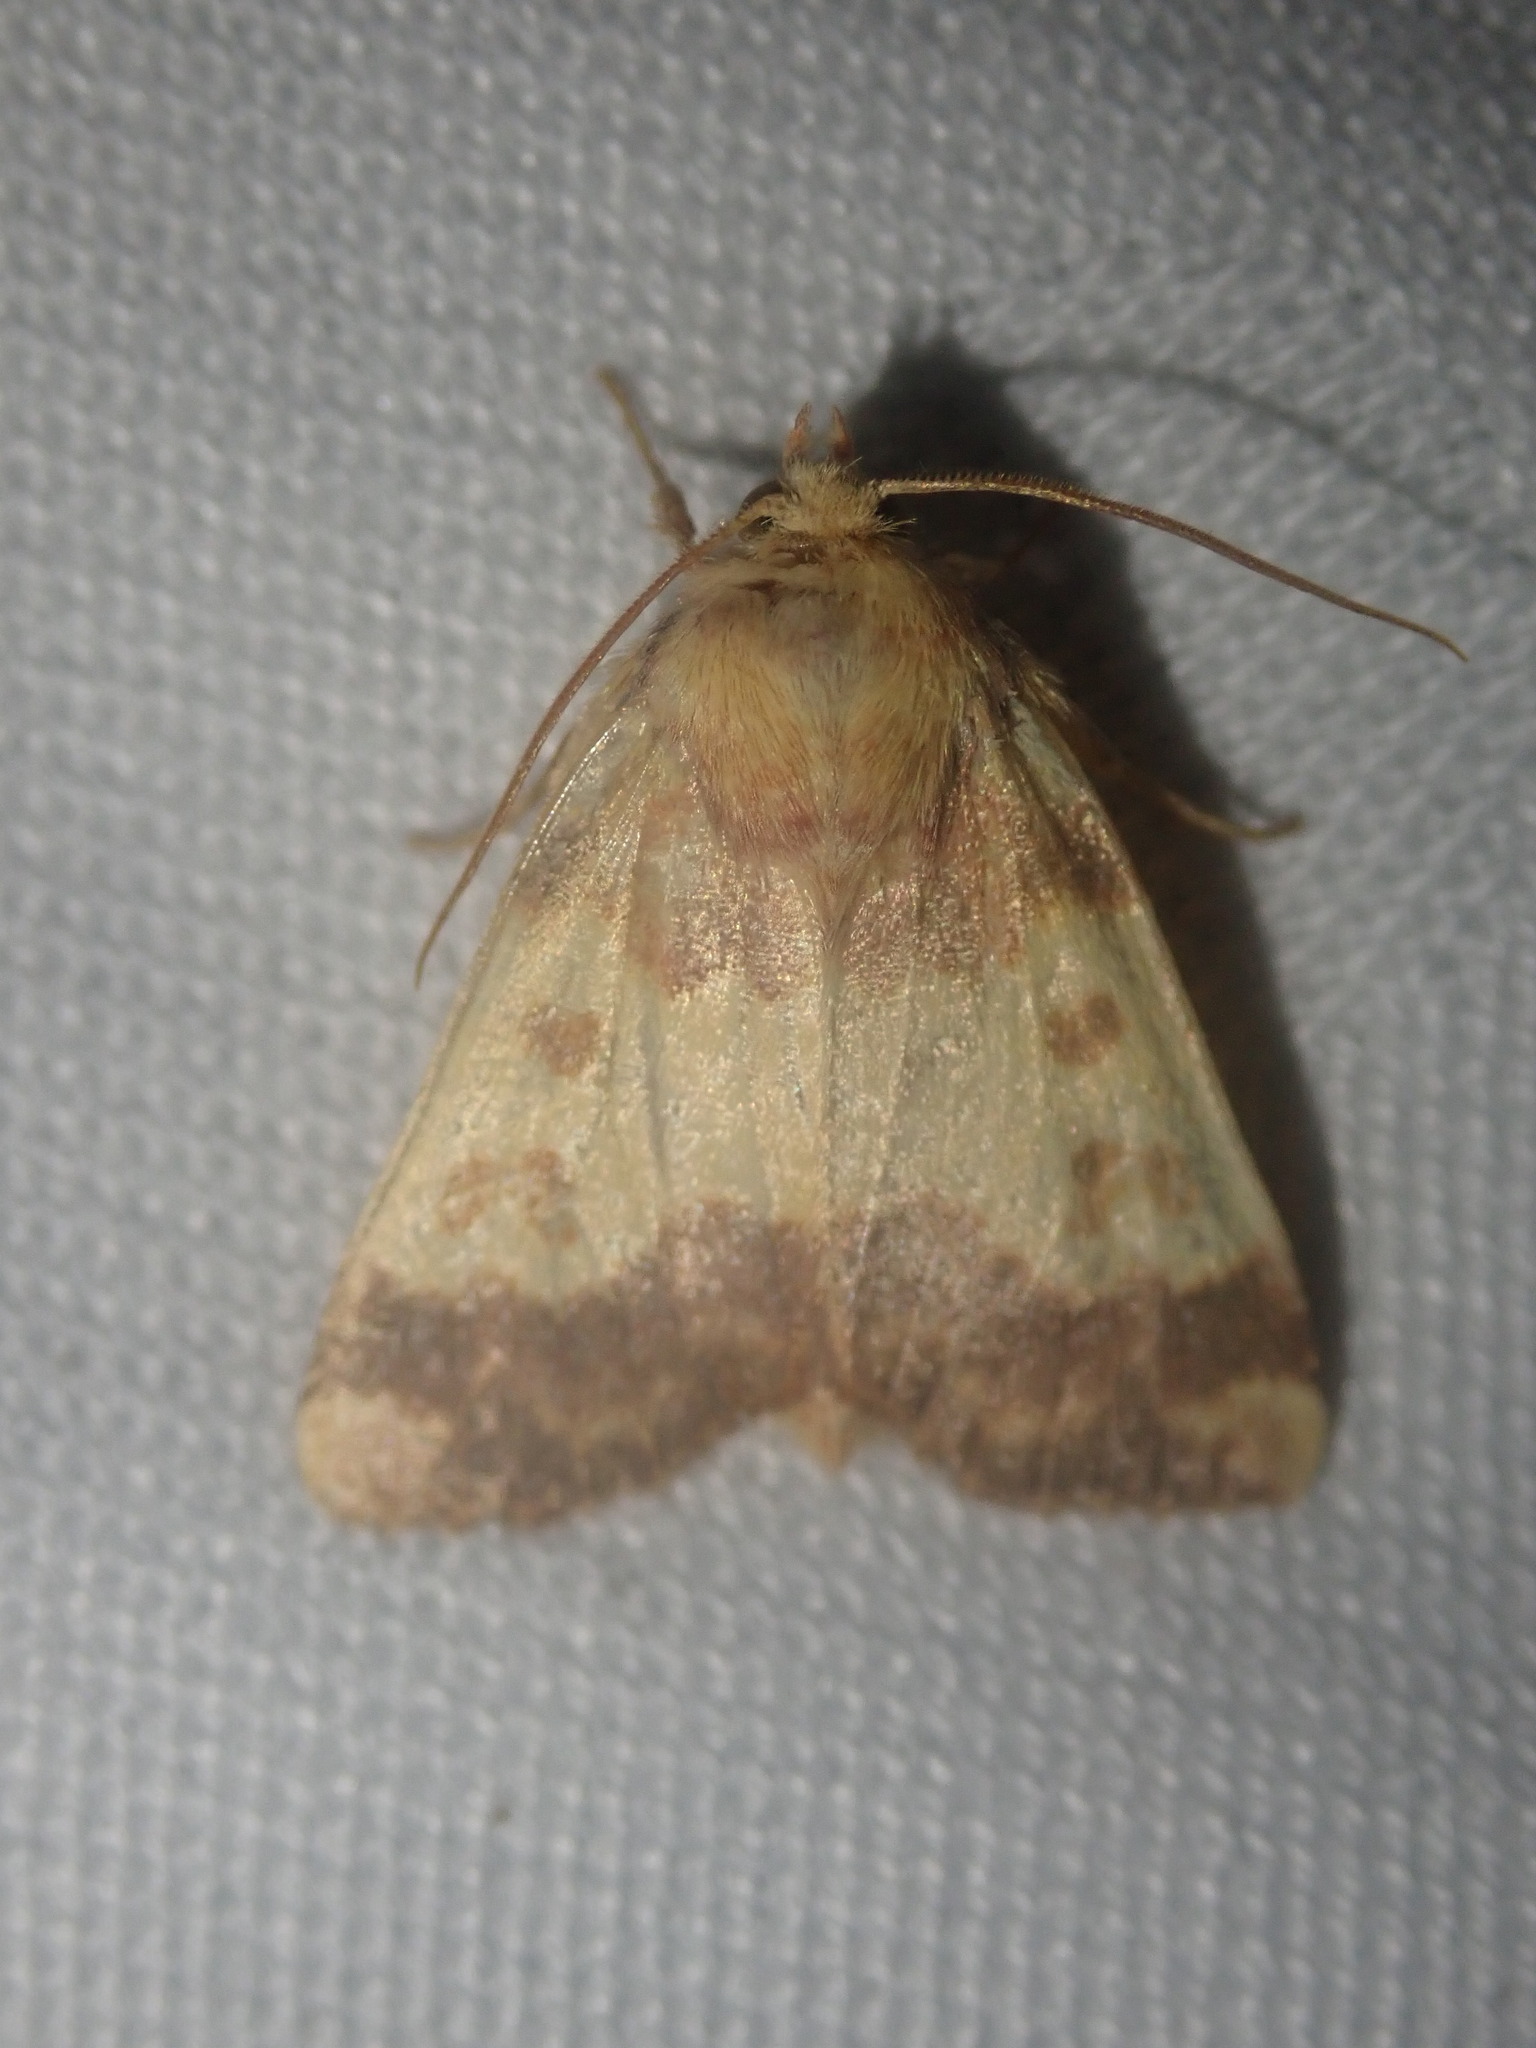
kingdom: Animalia
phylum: Arthropoda
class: Insecta
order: Lepidoptera
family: Noctuidae
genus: Tiliacea
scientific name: Tiliacea aurago
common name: Barred sallow
